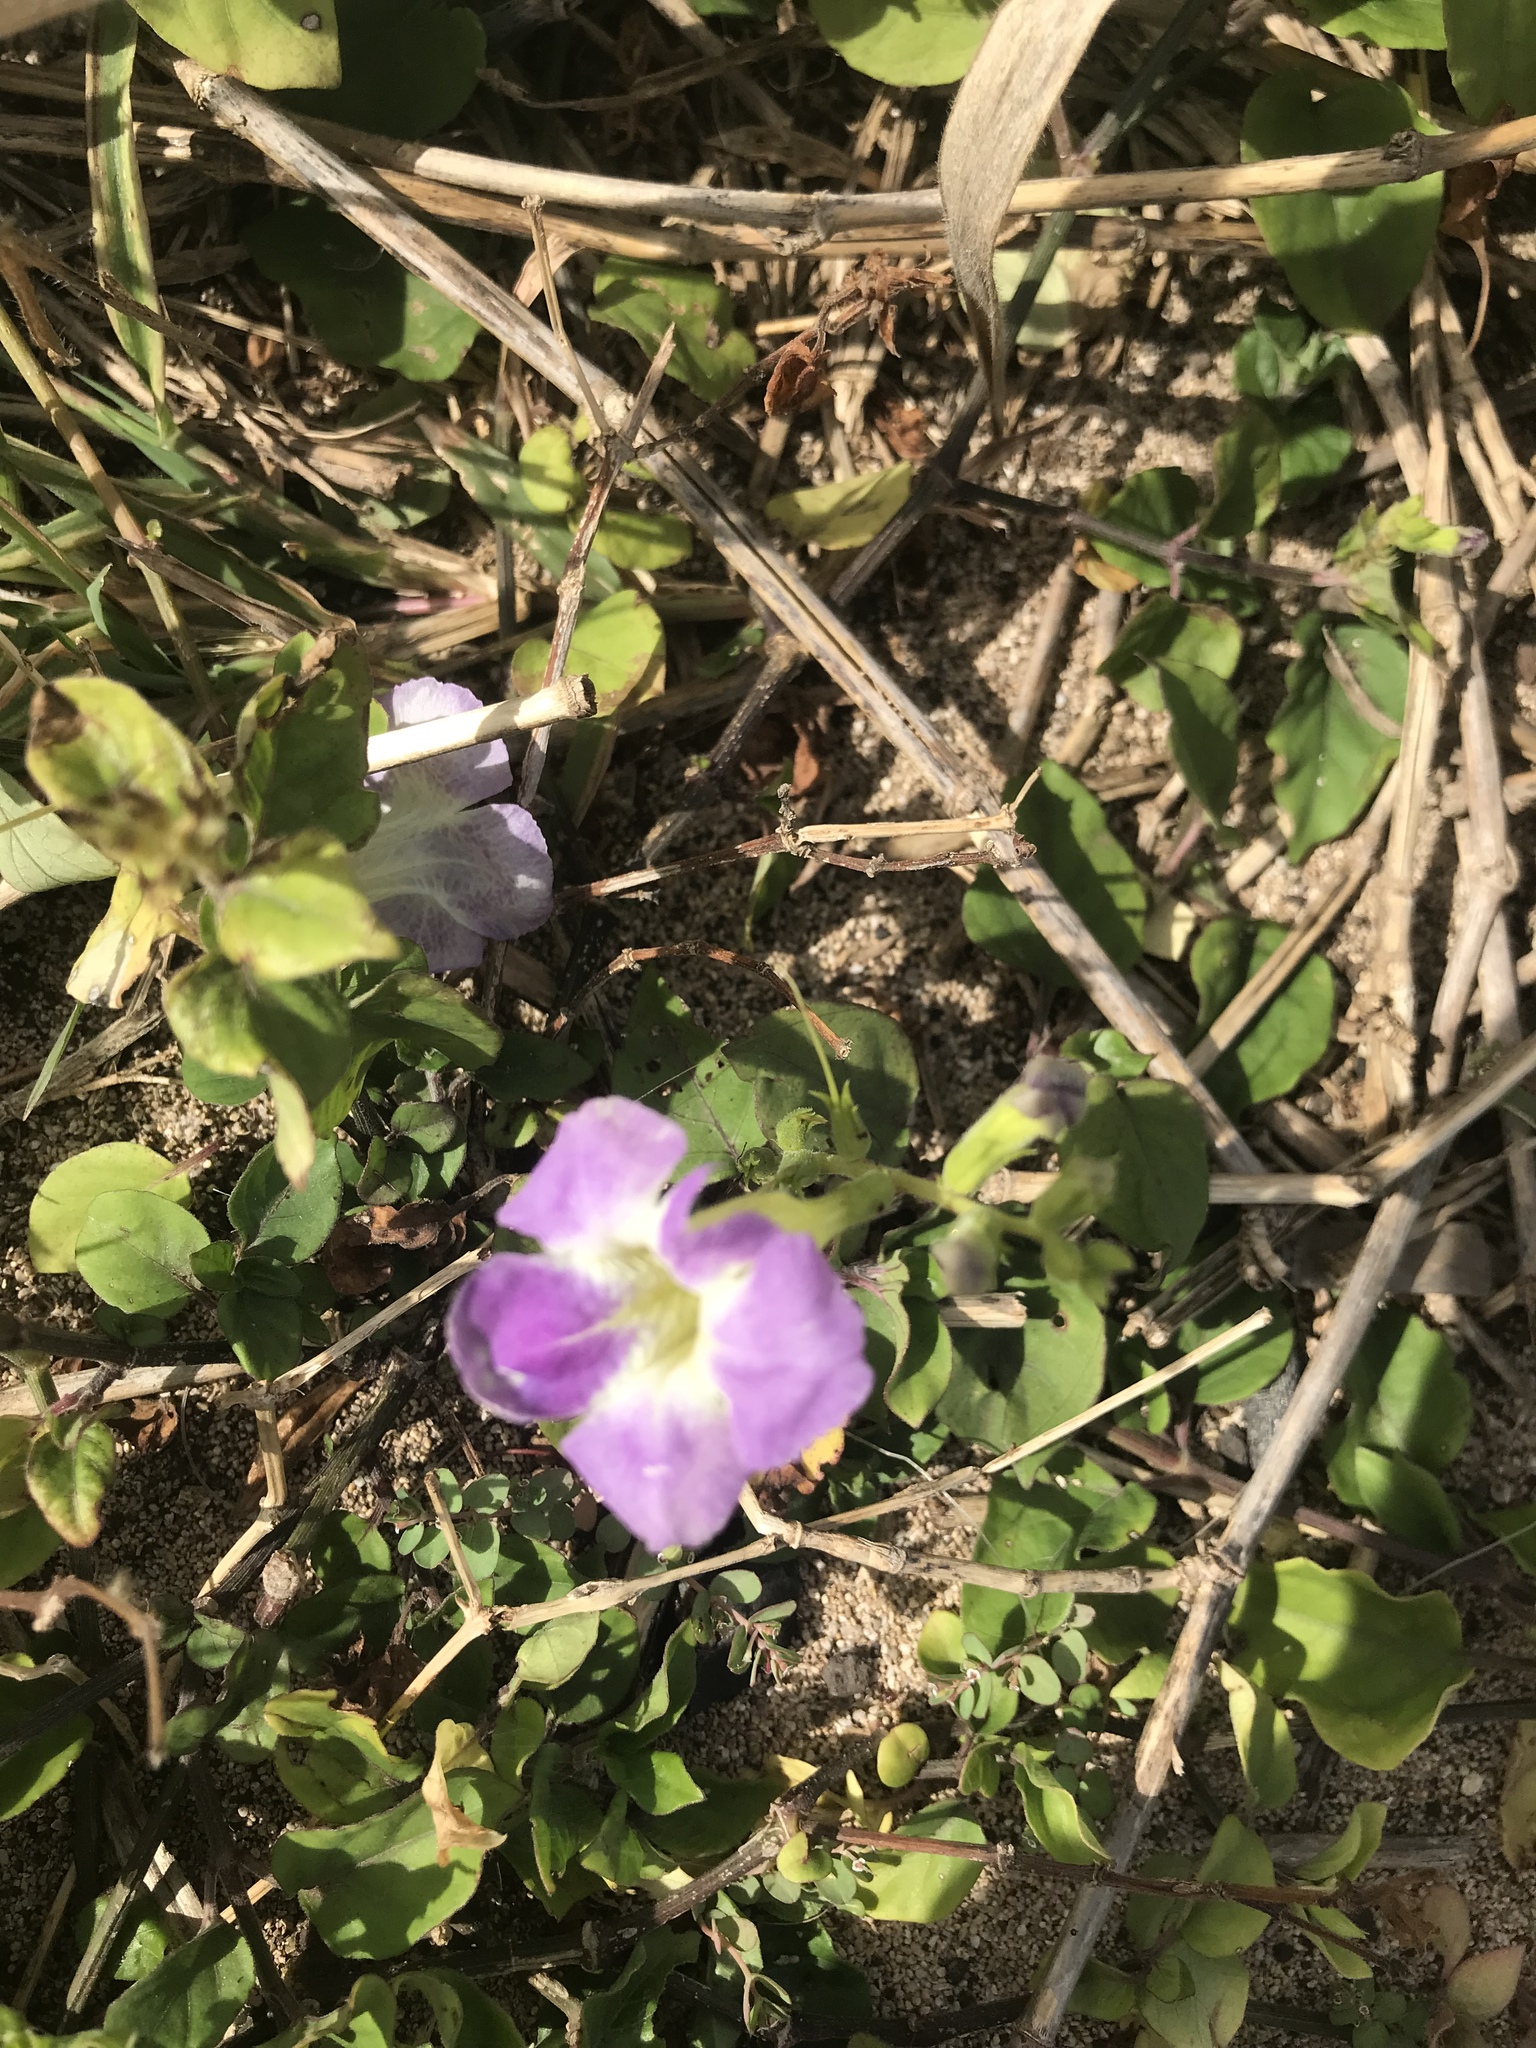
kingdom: Plantae
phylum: Tracheophyta
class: Magnoliopsida
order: Lamiales
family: Acanthaceae
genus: Asystasia
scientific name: Asystasia gangetica
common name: Chinese violet
